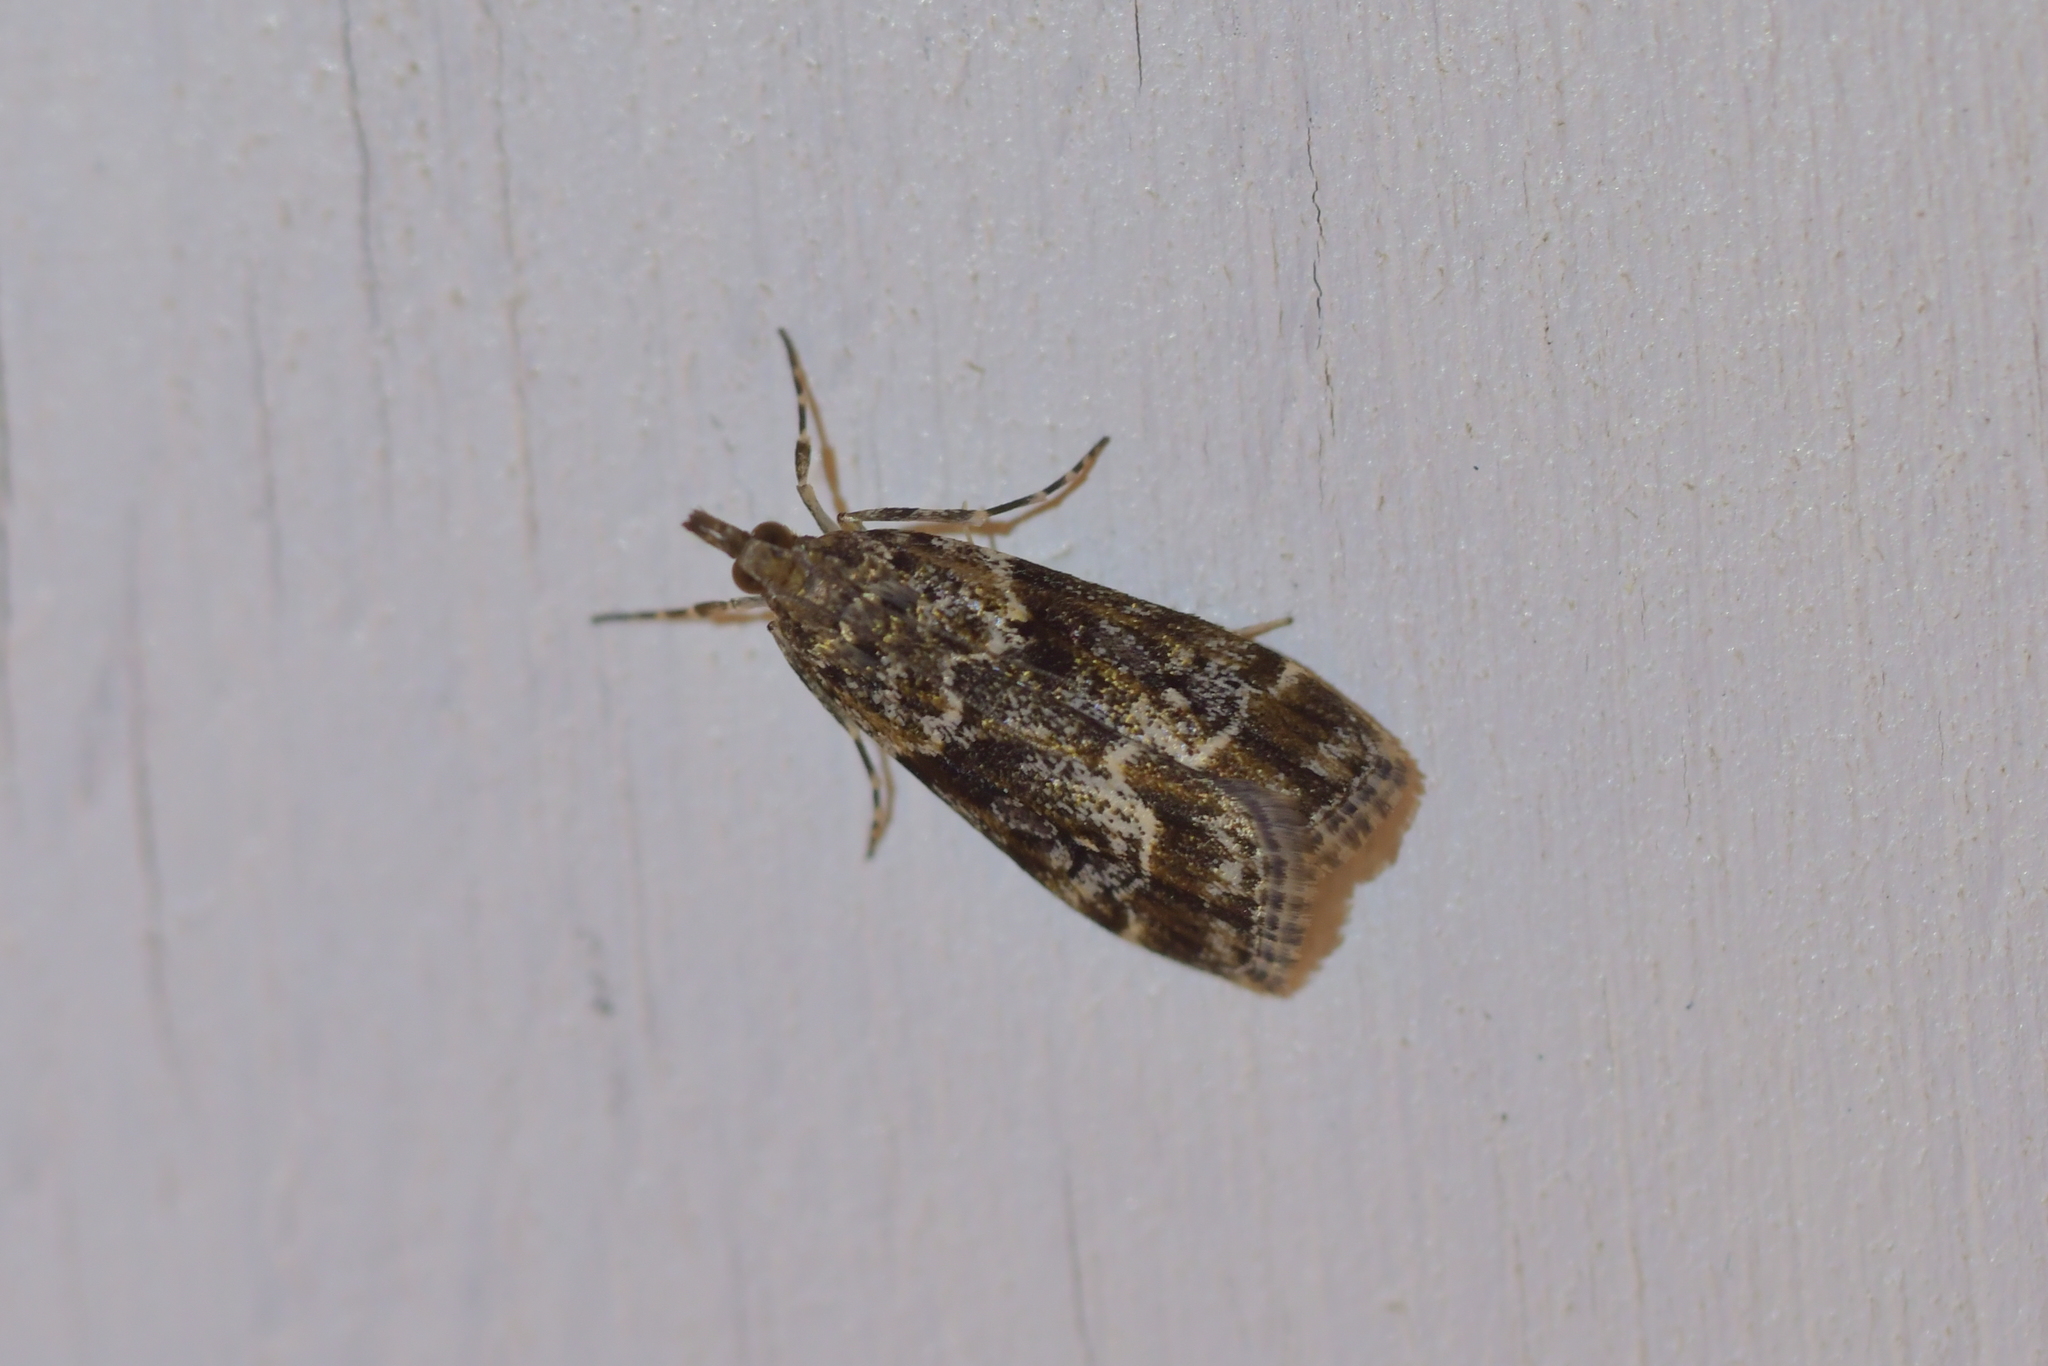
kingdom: Animalia
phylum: Arthropoda
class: Insecta
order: Lepidoptera
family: Crambidae
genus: Eudonia
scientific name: Eudonia legnota
